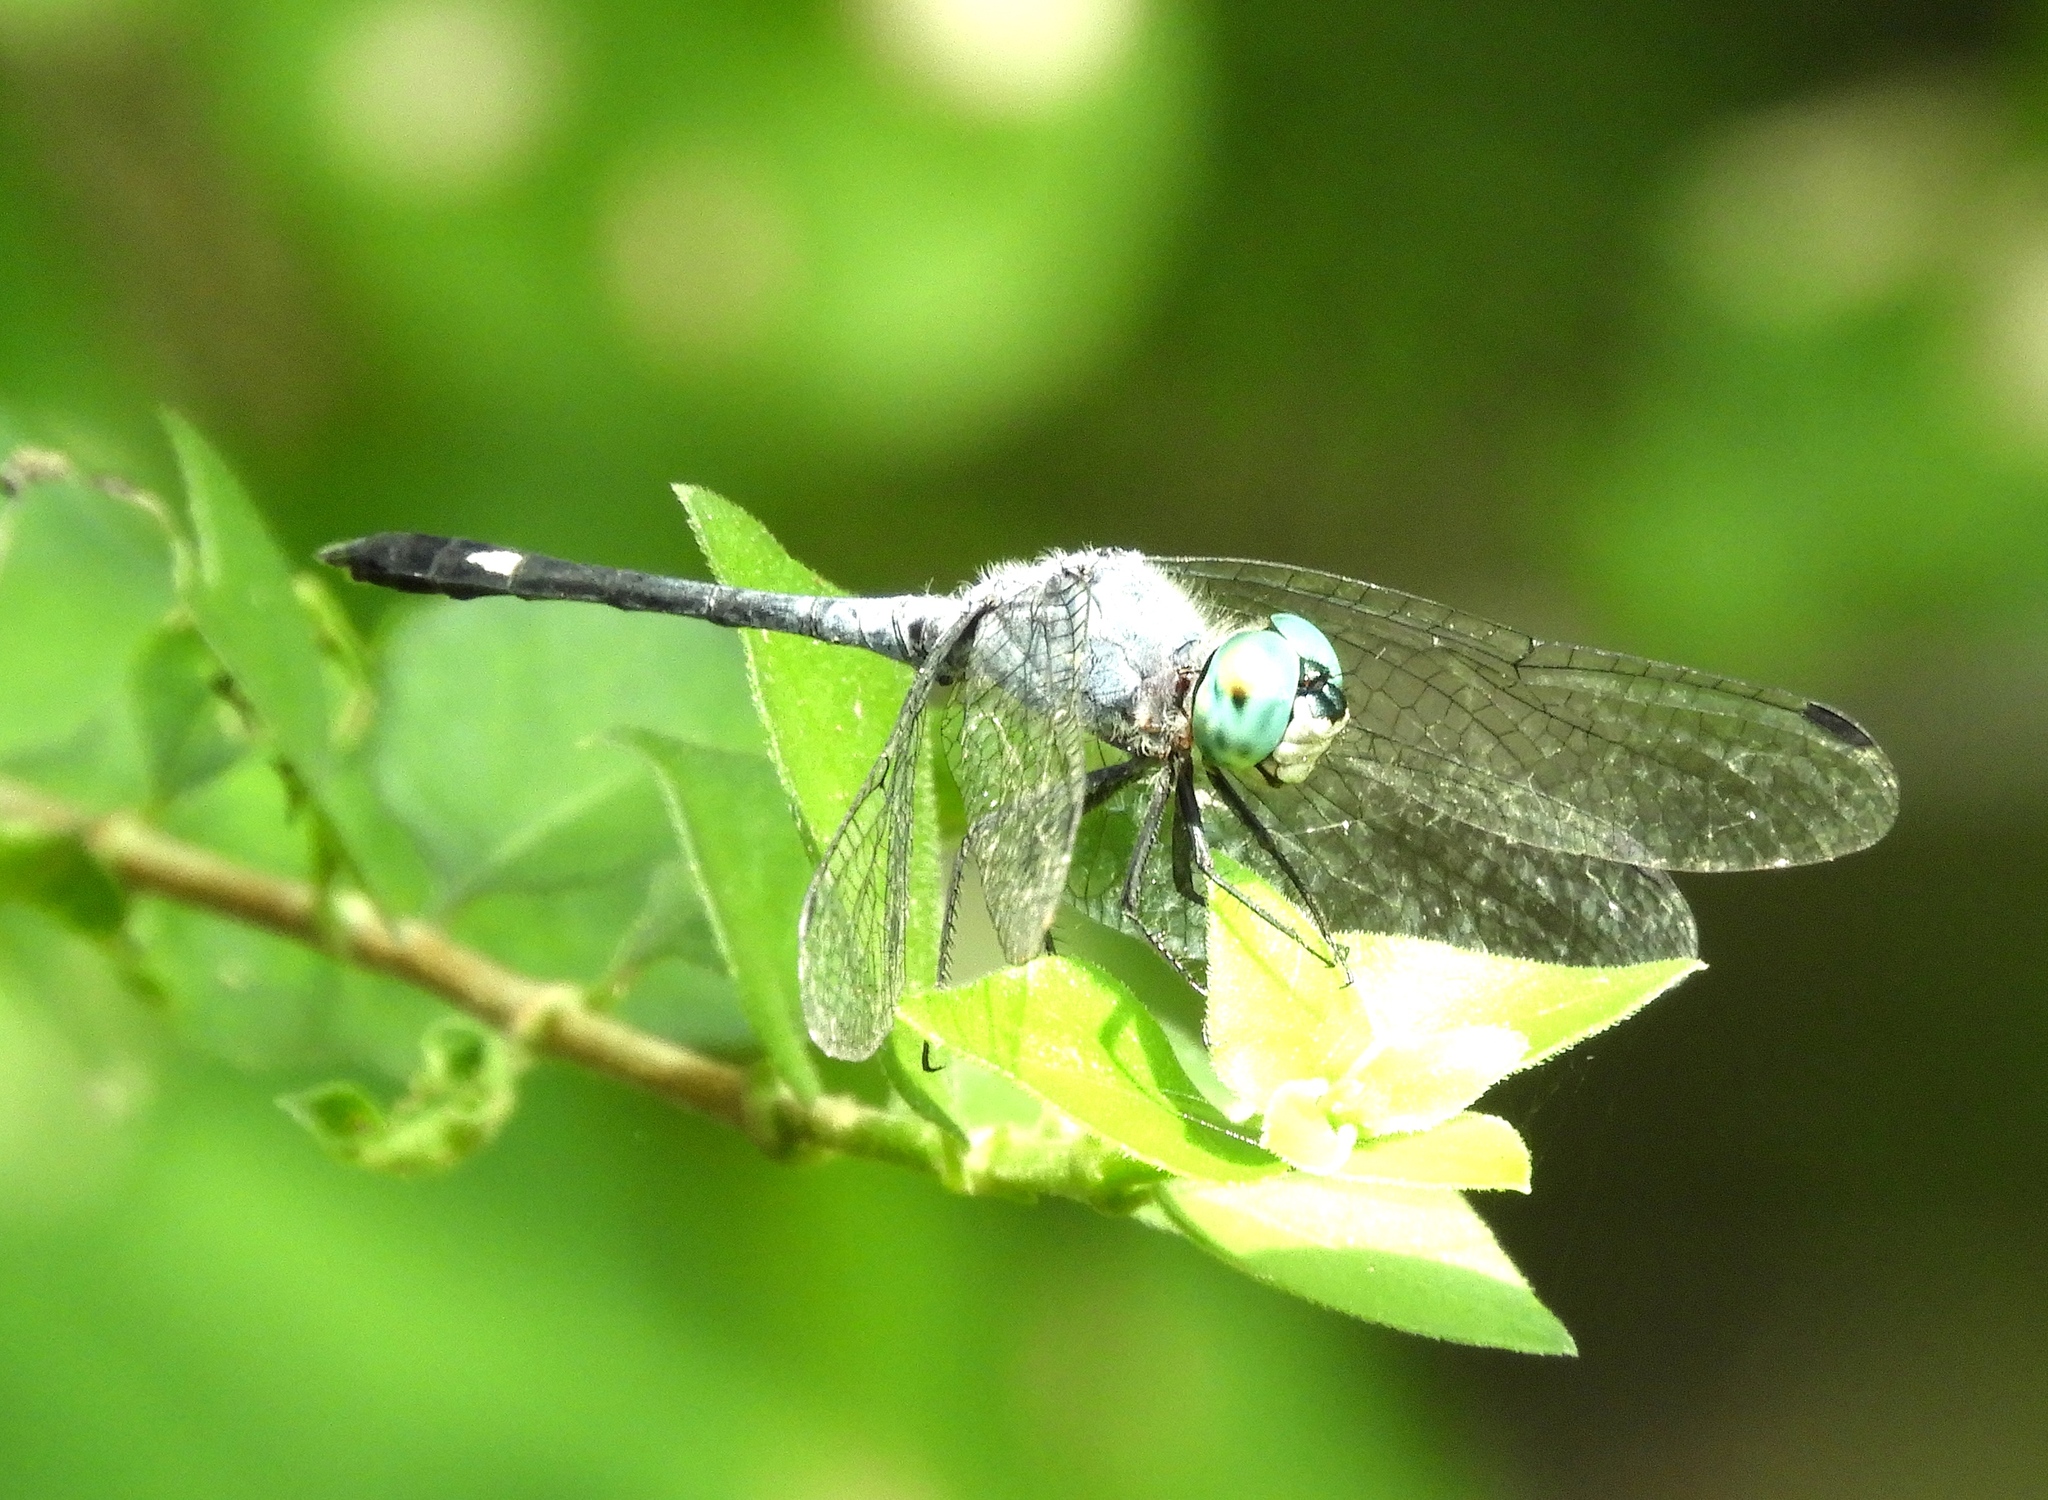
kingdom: Animalia
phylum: Arthropoda
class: Insecta
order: Odonata
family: Libellulidae
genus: Micrathyria
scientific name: Micrathyria aequalis
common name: Spot-tailed dasher
